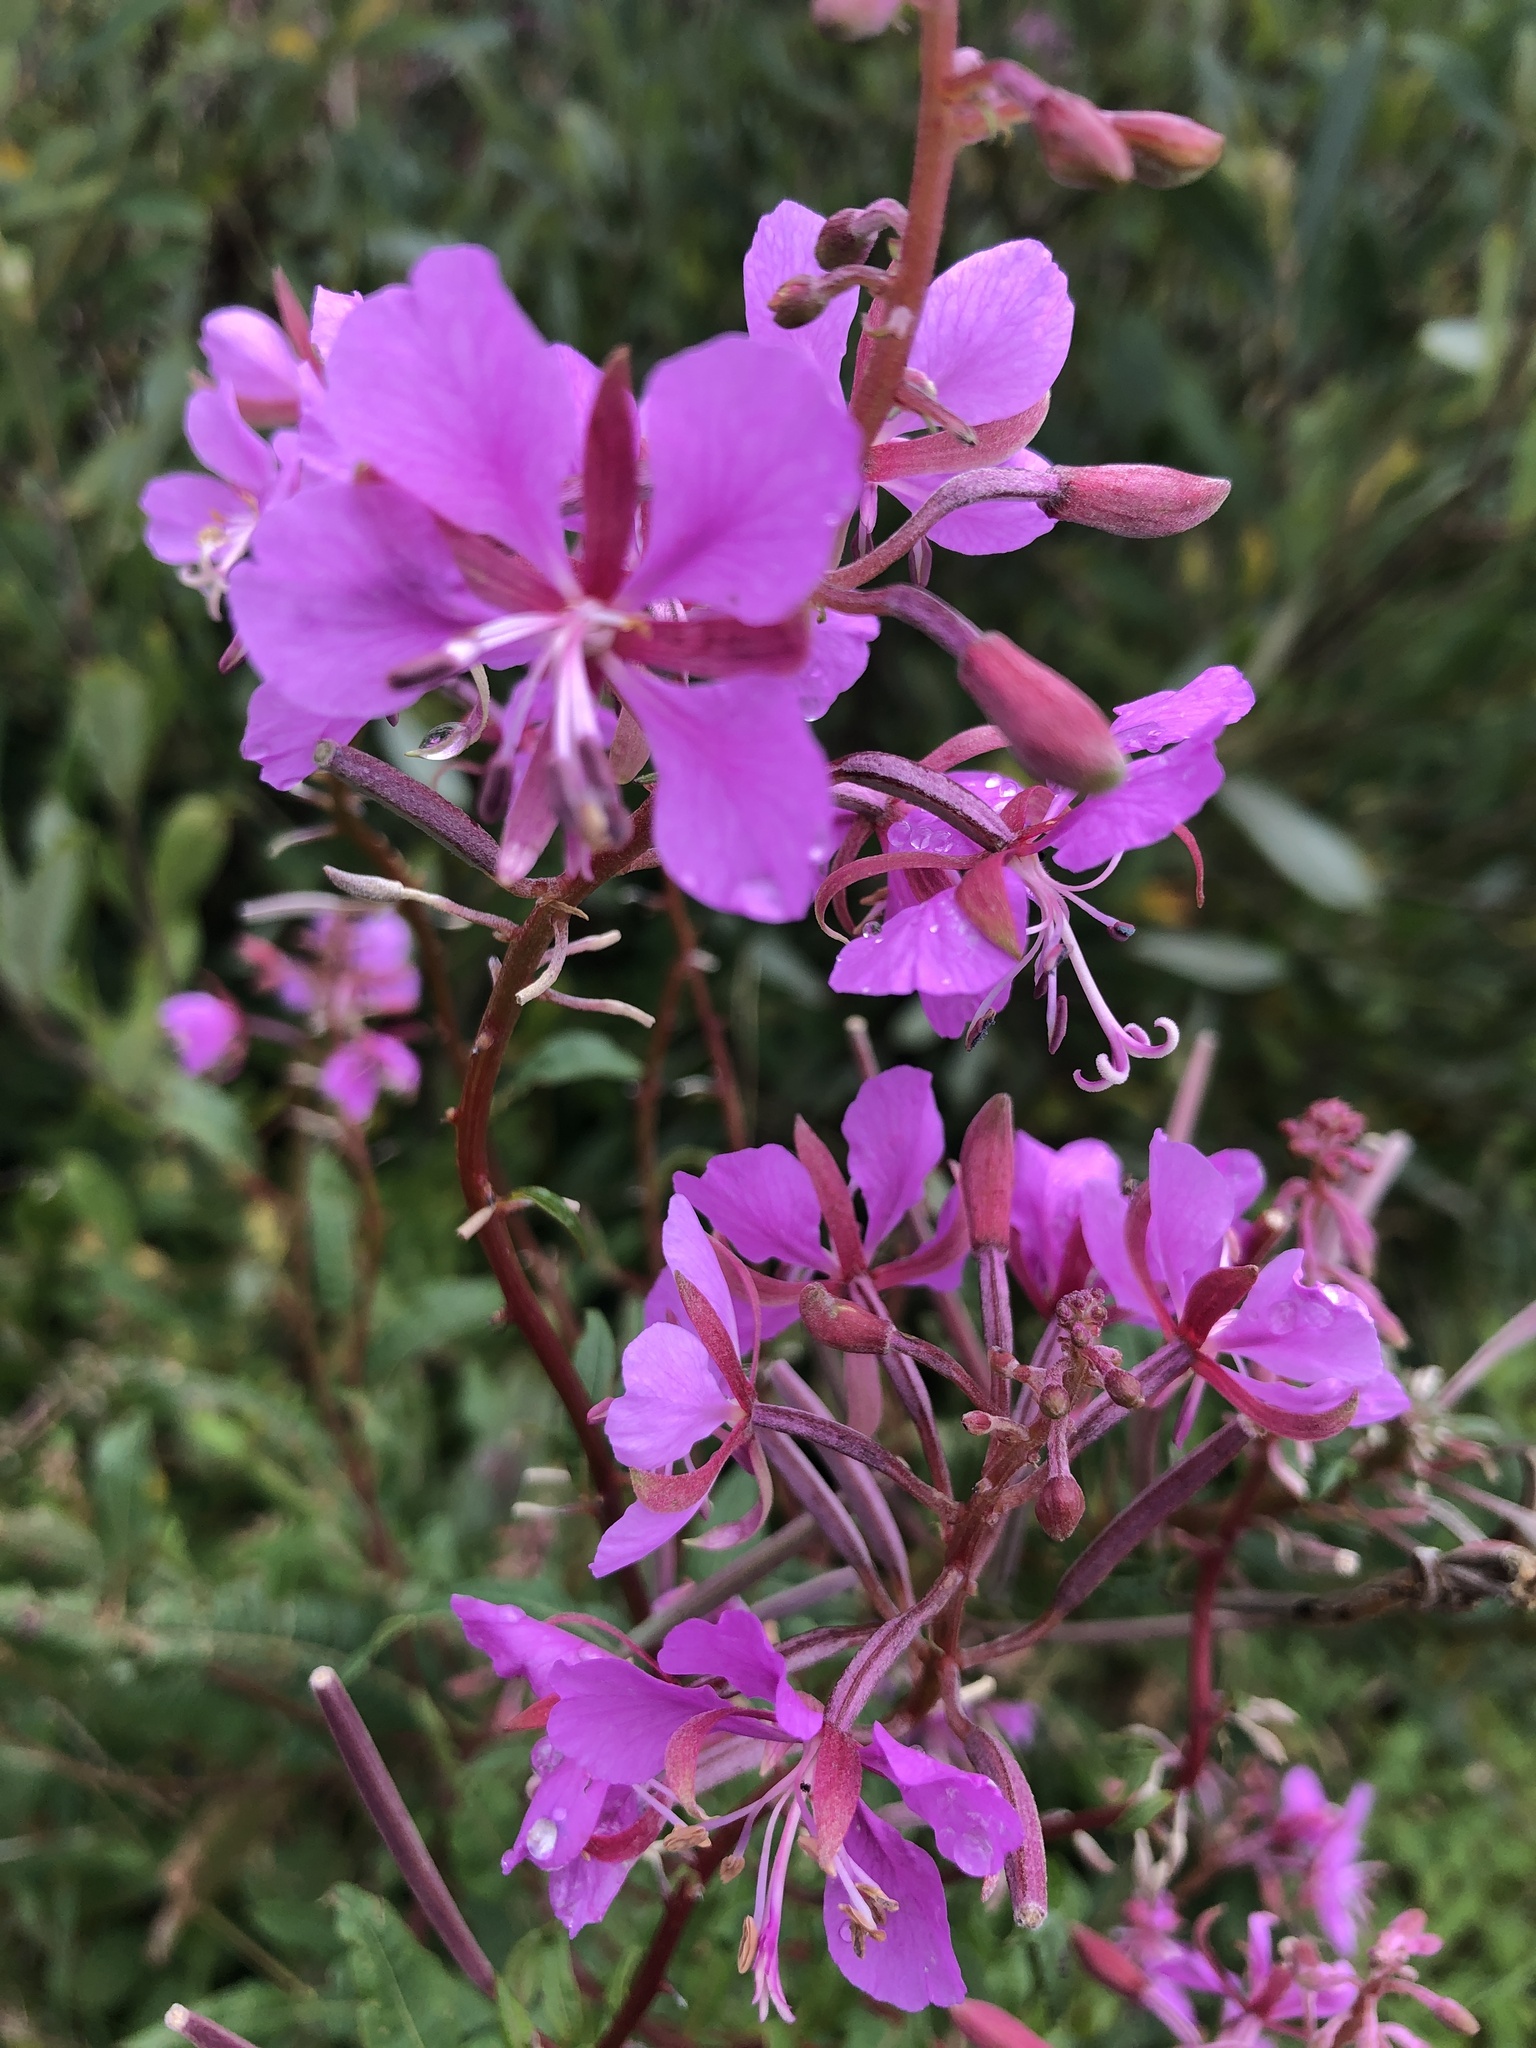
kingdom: Plantae
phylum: Tracheophyta
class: Magnoliopsida
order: Myrtales
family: Onagraceae
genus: Chamaenerion
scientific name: Chamaenerion angustifolium
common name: Fireweed
